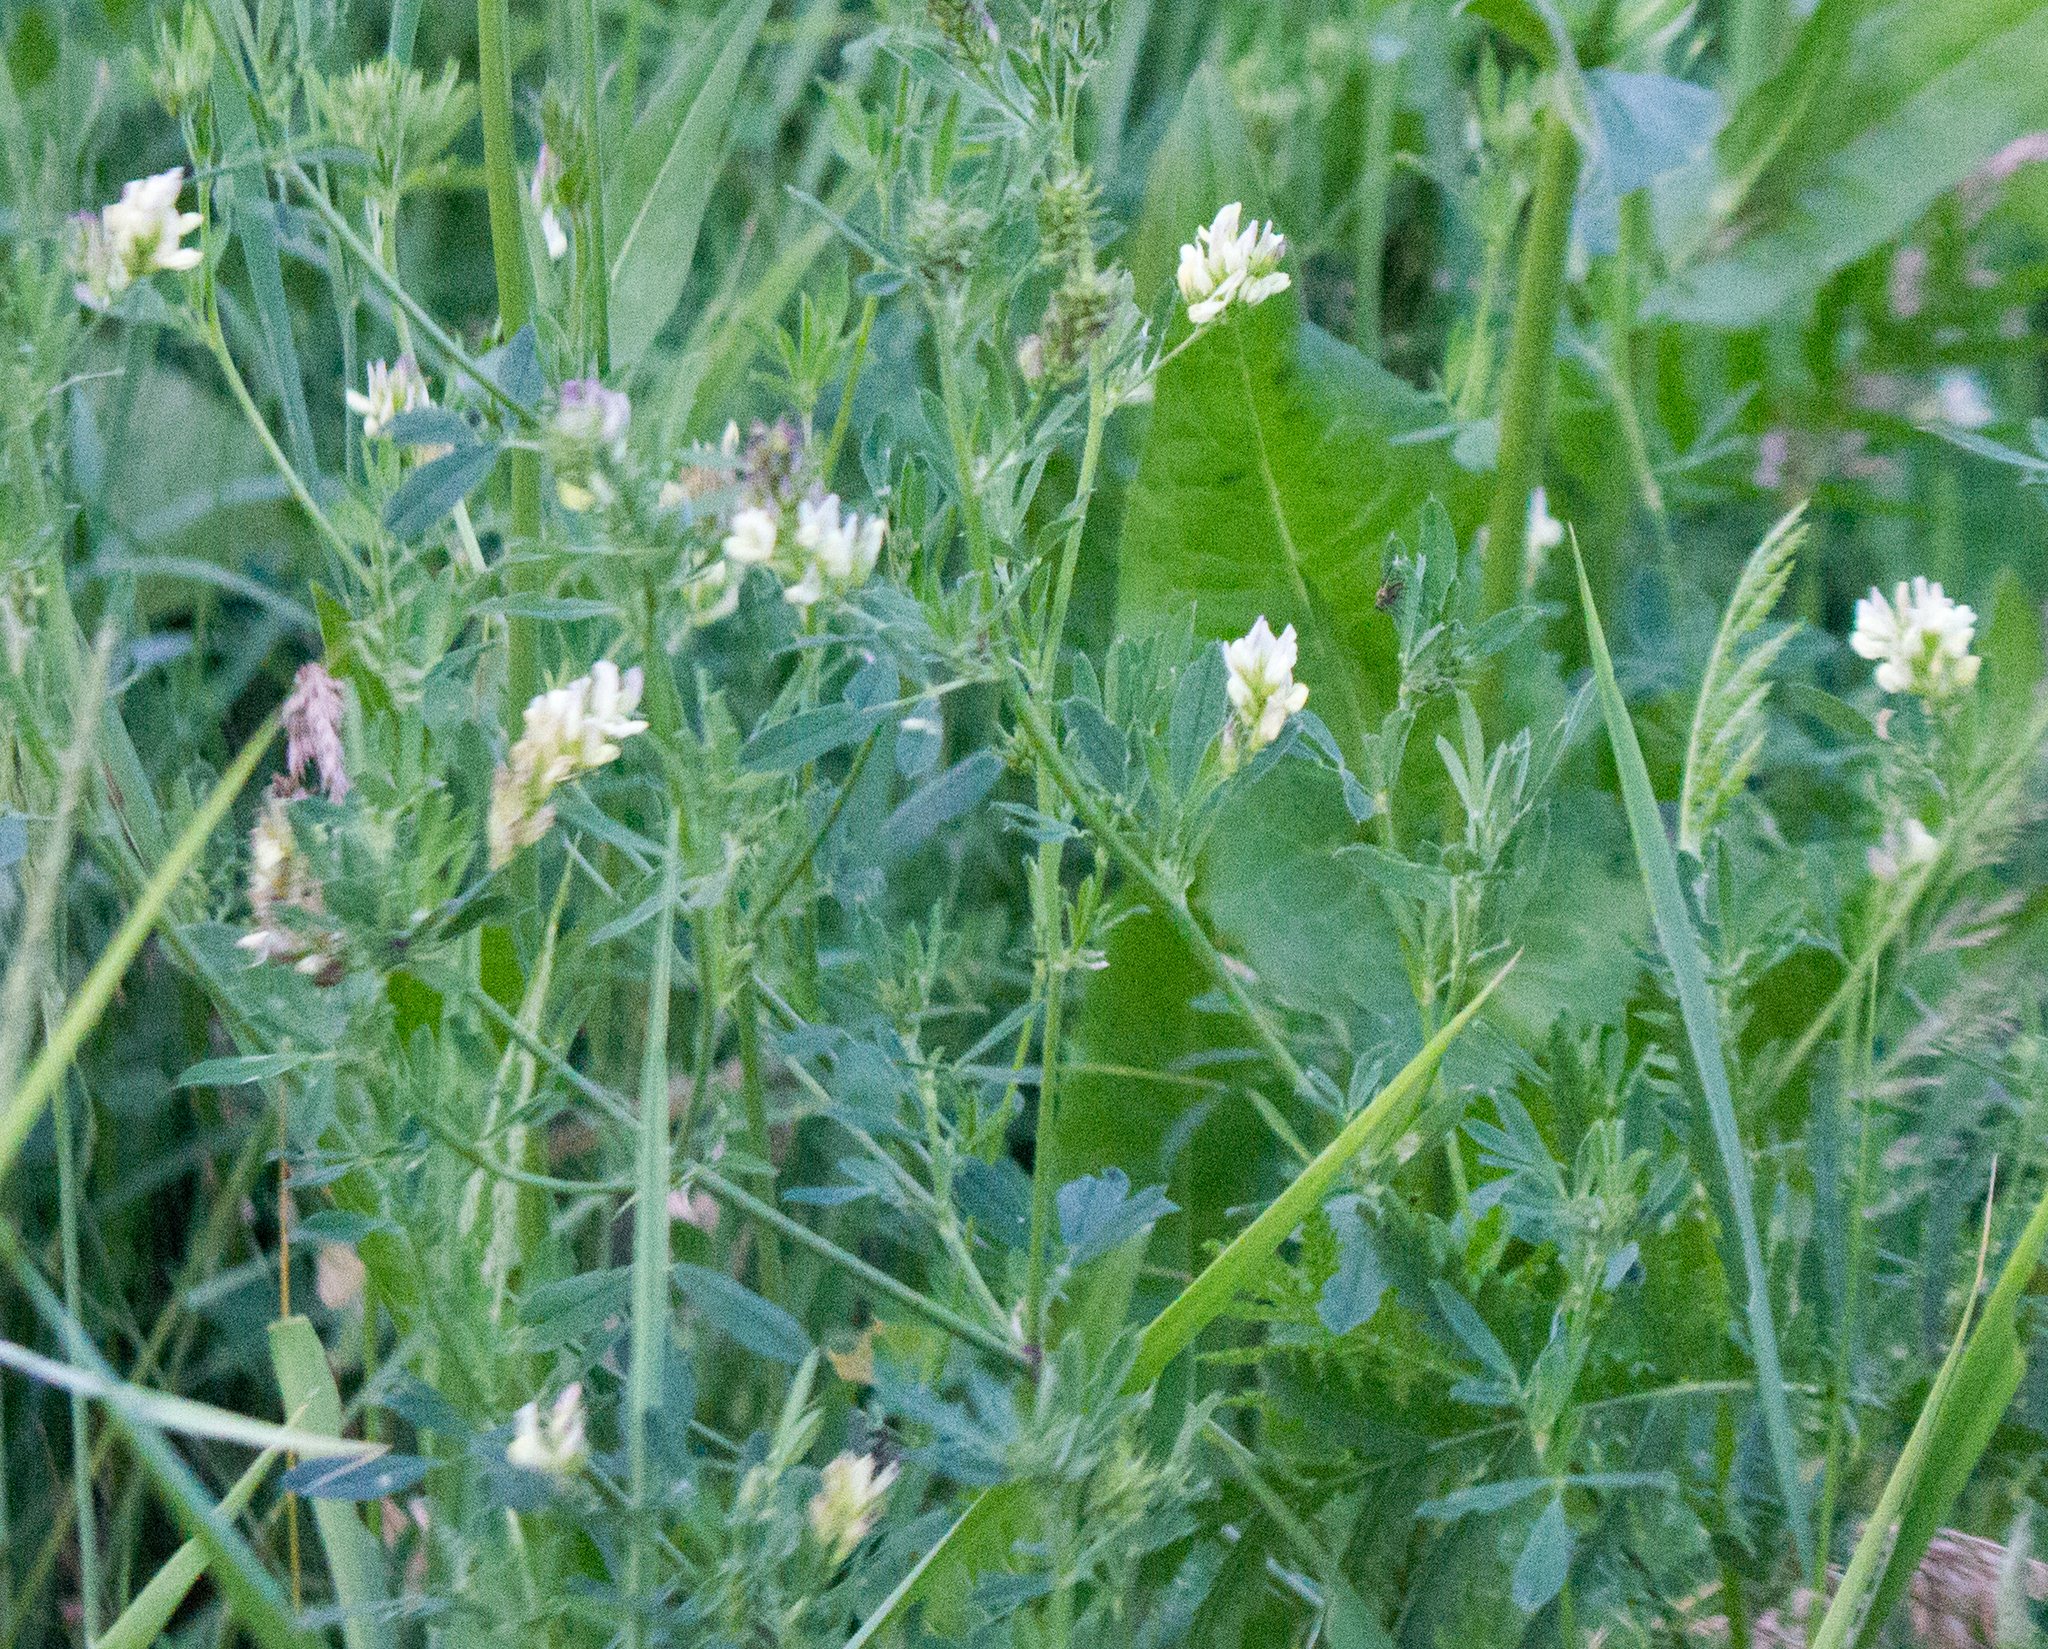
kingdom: Plantae
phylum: Tracheophyta
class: Magnoliopsida
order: Fabales
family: Fabaceae
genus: Medicago
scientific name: Medicago varia
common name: Sand lucerne
